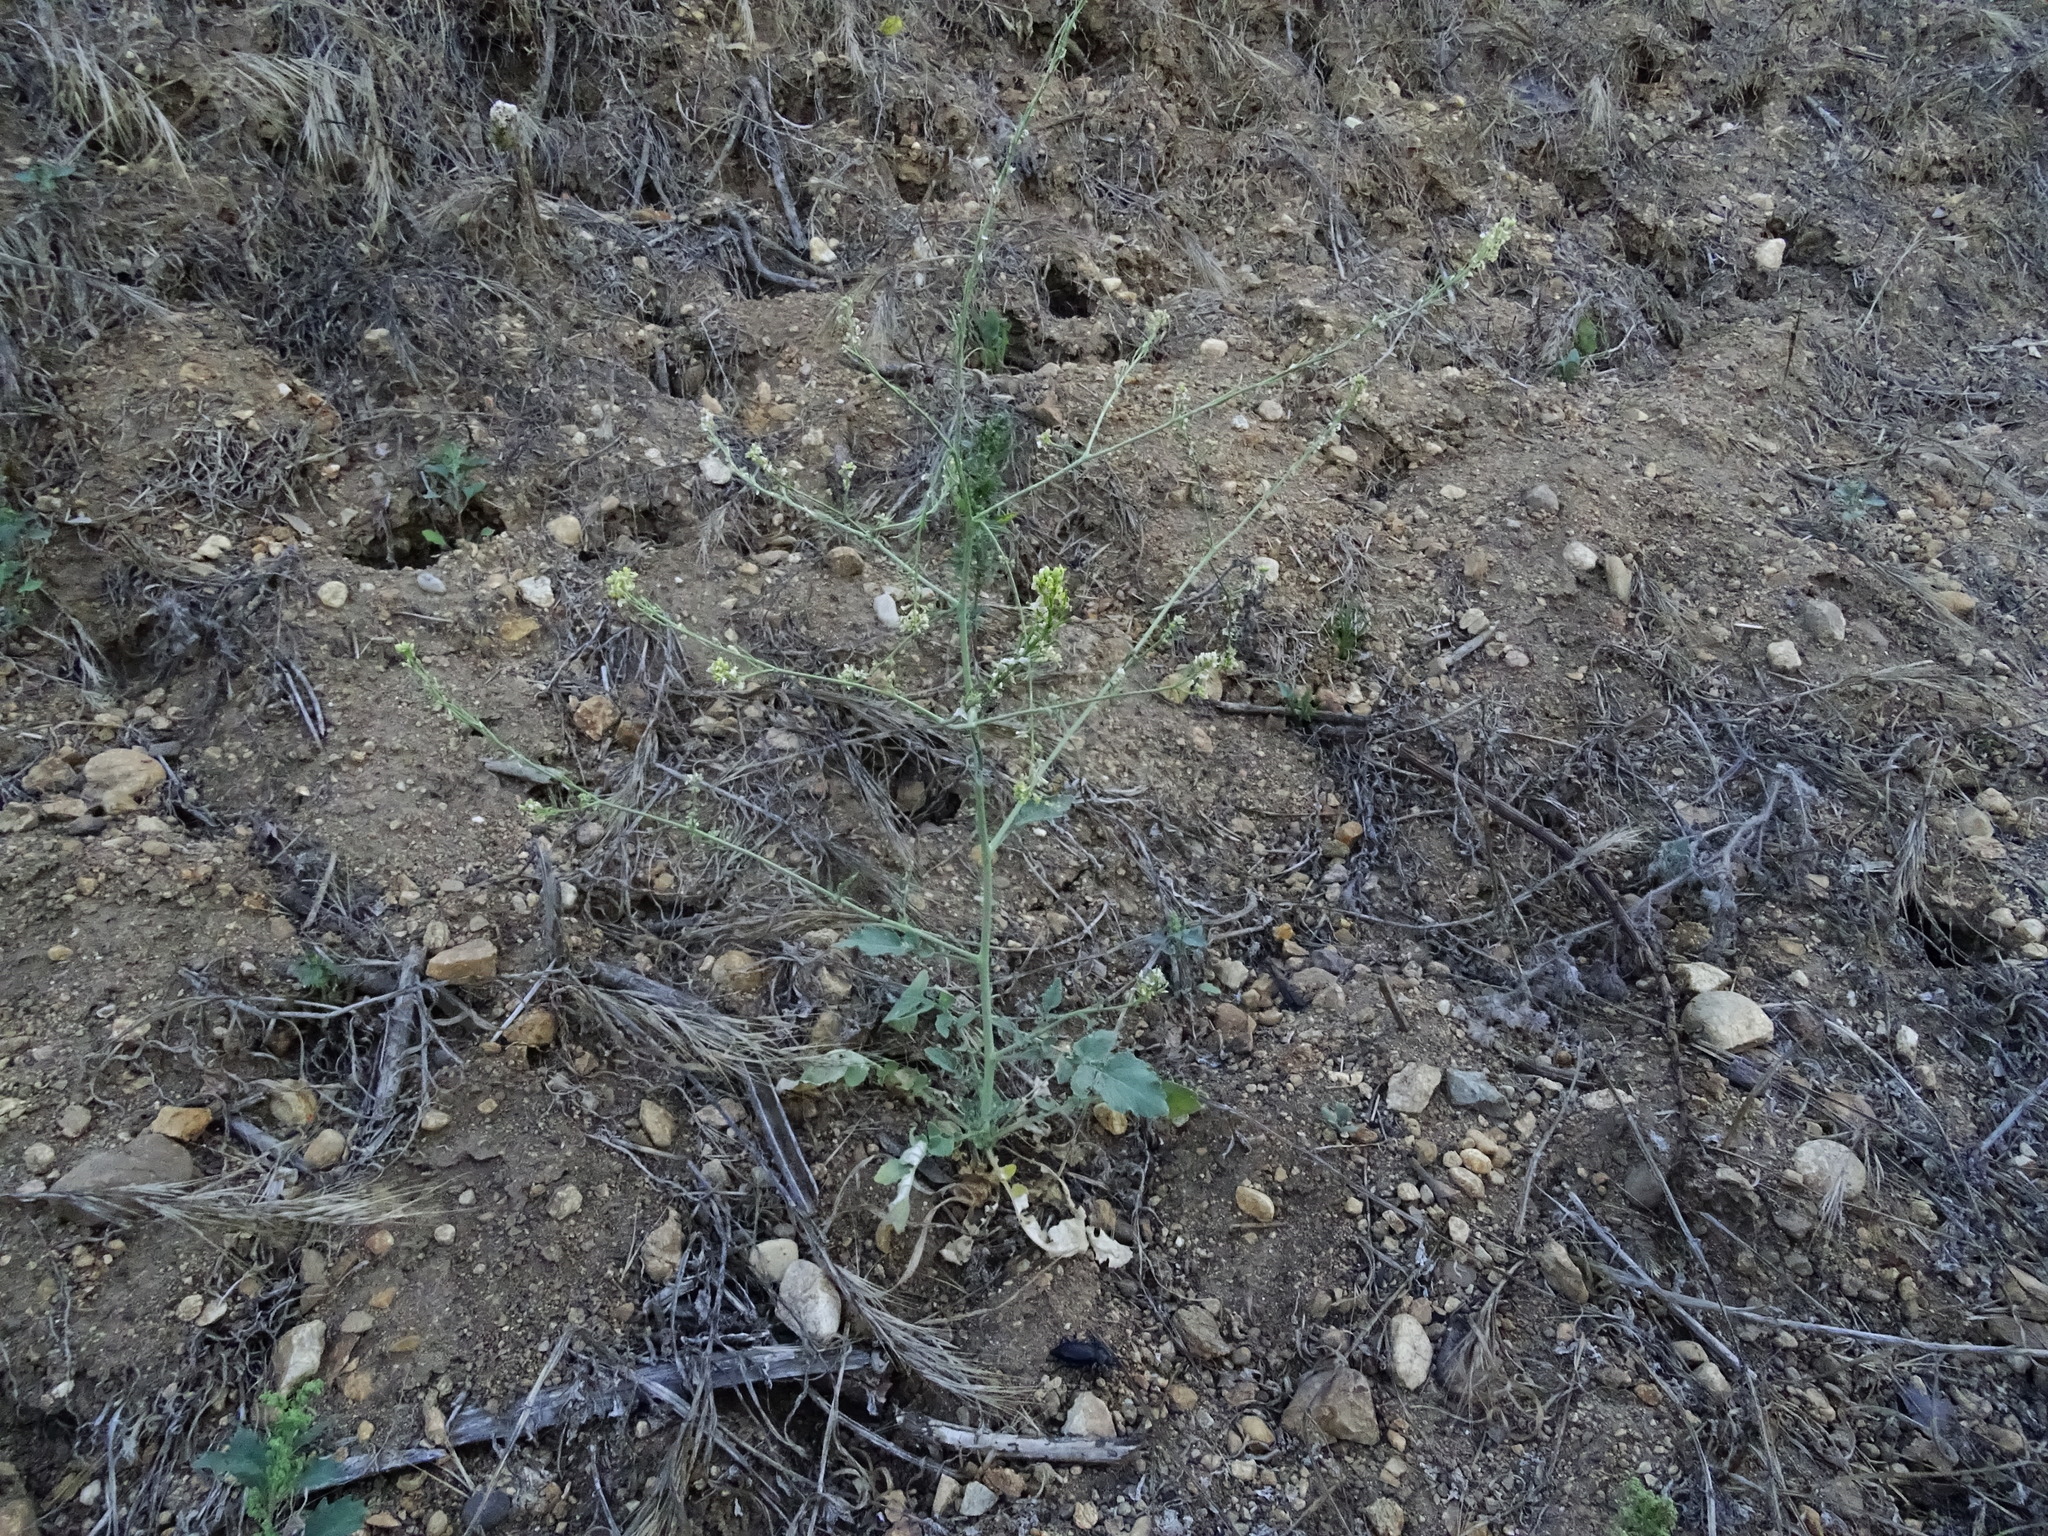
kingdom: Plantae
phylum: Tracheophyta
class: Magnoliopsida
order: Brassicales
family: Brassicaceae
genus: Hirschfeldia
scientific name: Hirschfeldia incana
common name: Hoary mustard
